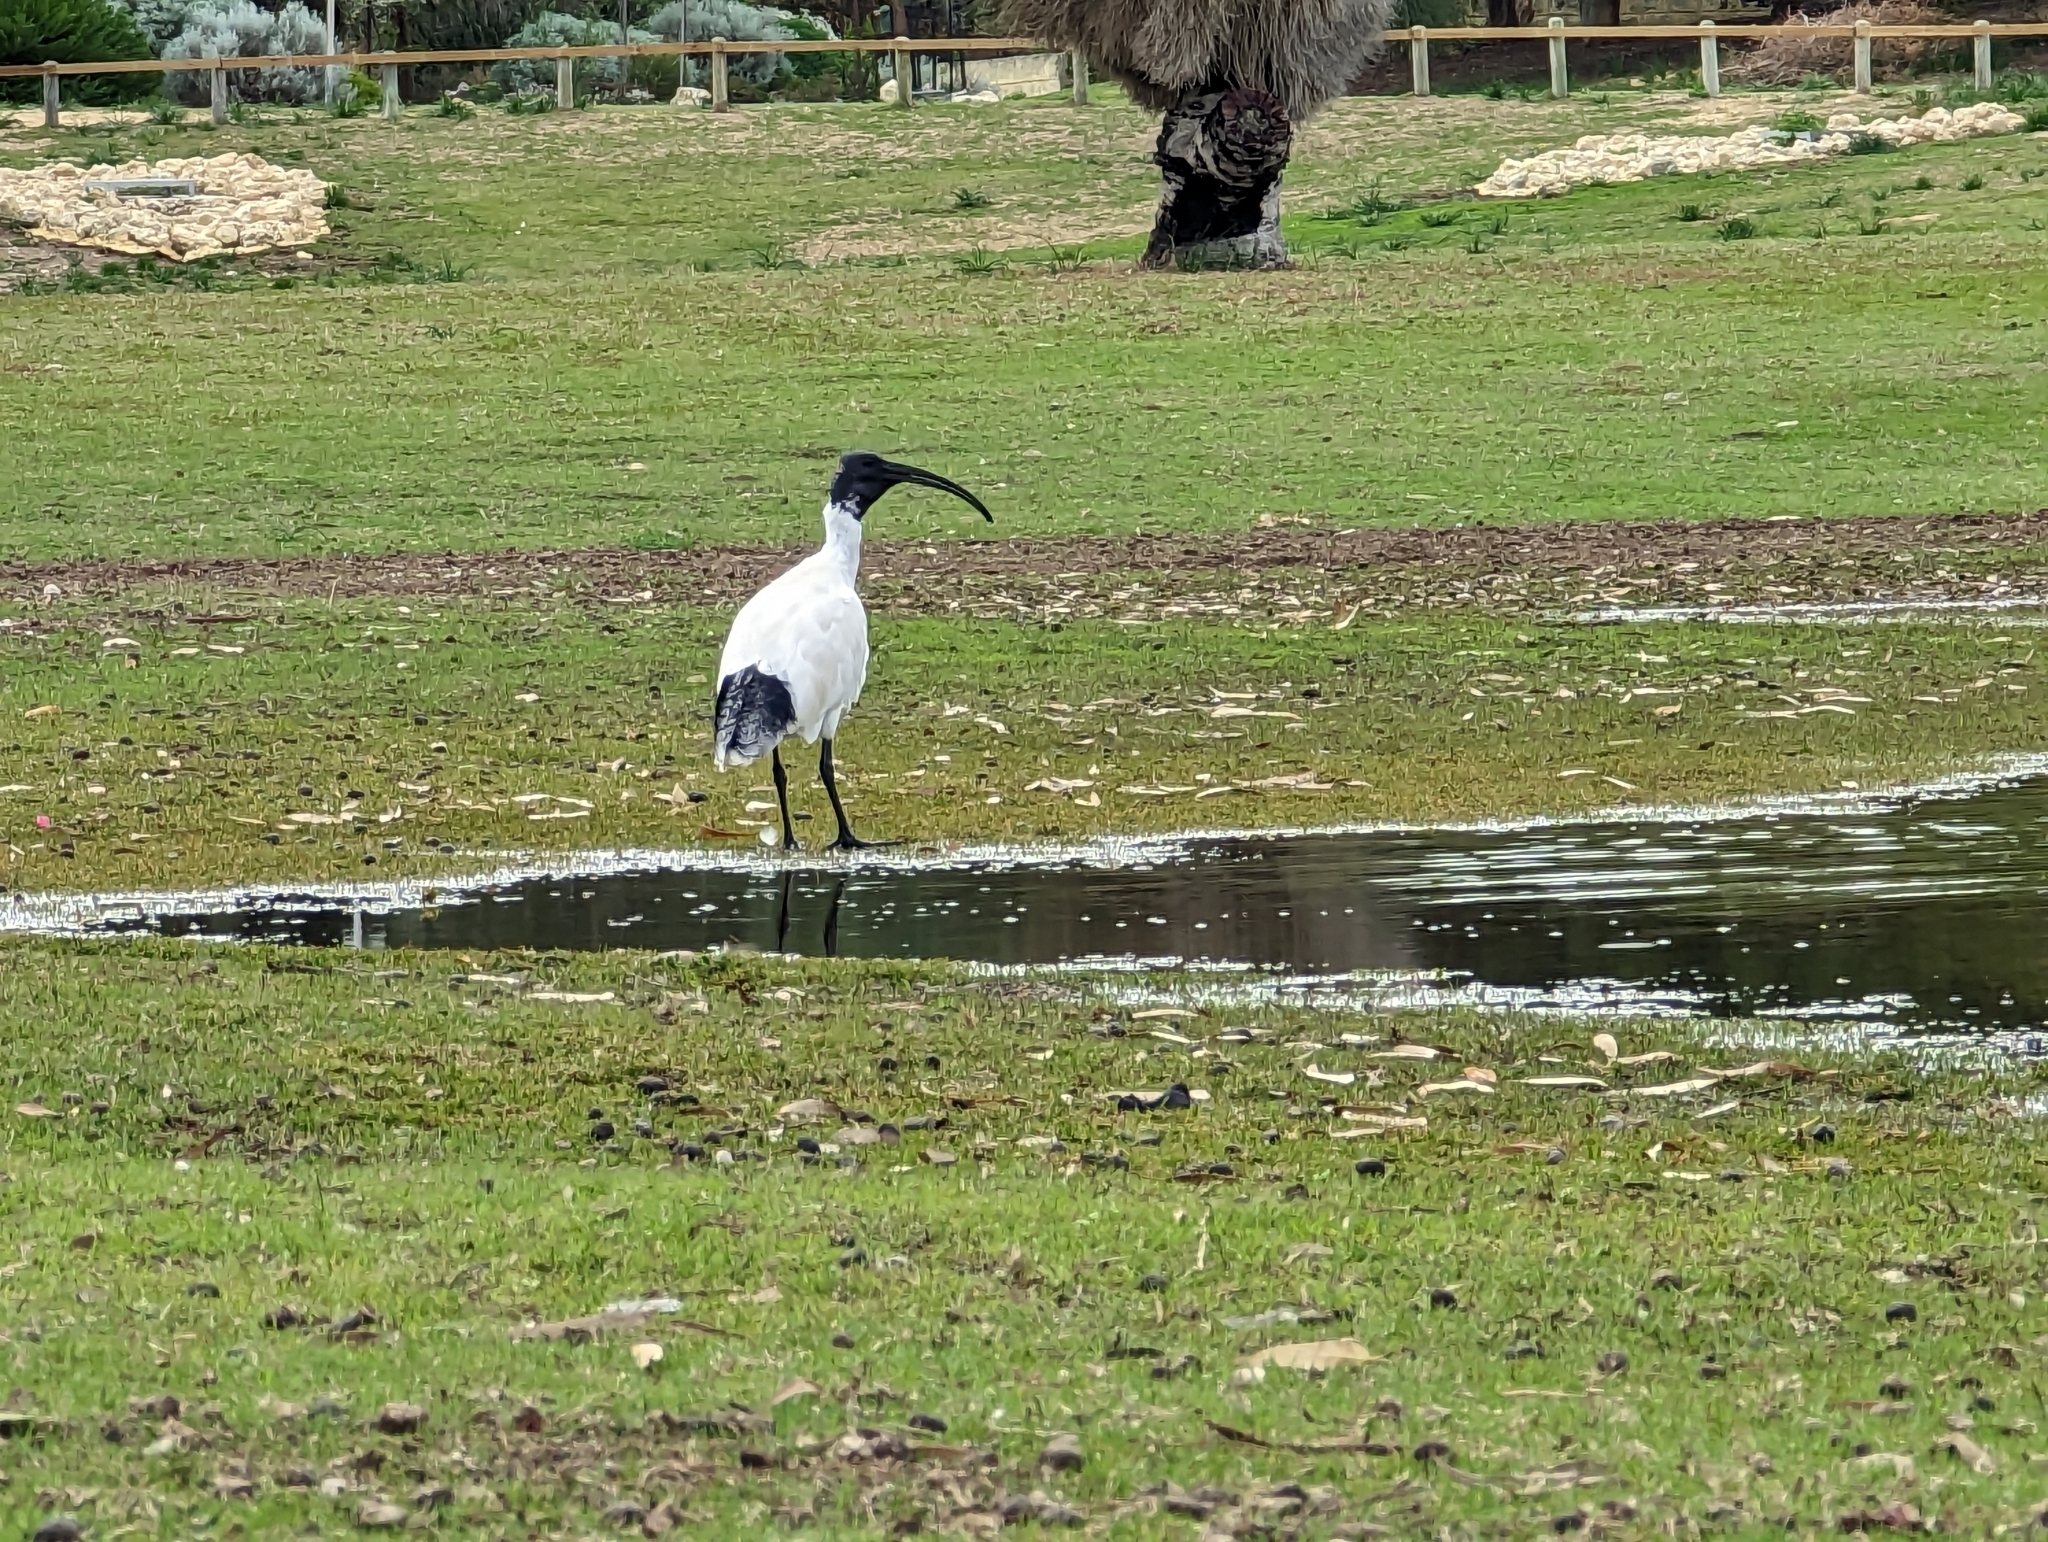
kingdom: Animalia
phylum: Chordata
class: Aves
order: Pelecaniformes
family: Threskiornithidae
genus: Threskiornis
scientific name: Threskiornis molucca
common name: Australian white ibis
